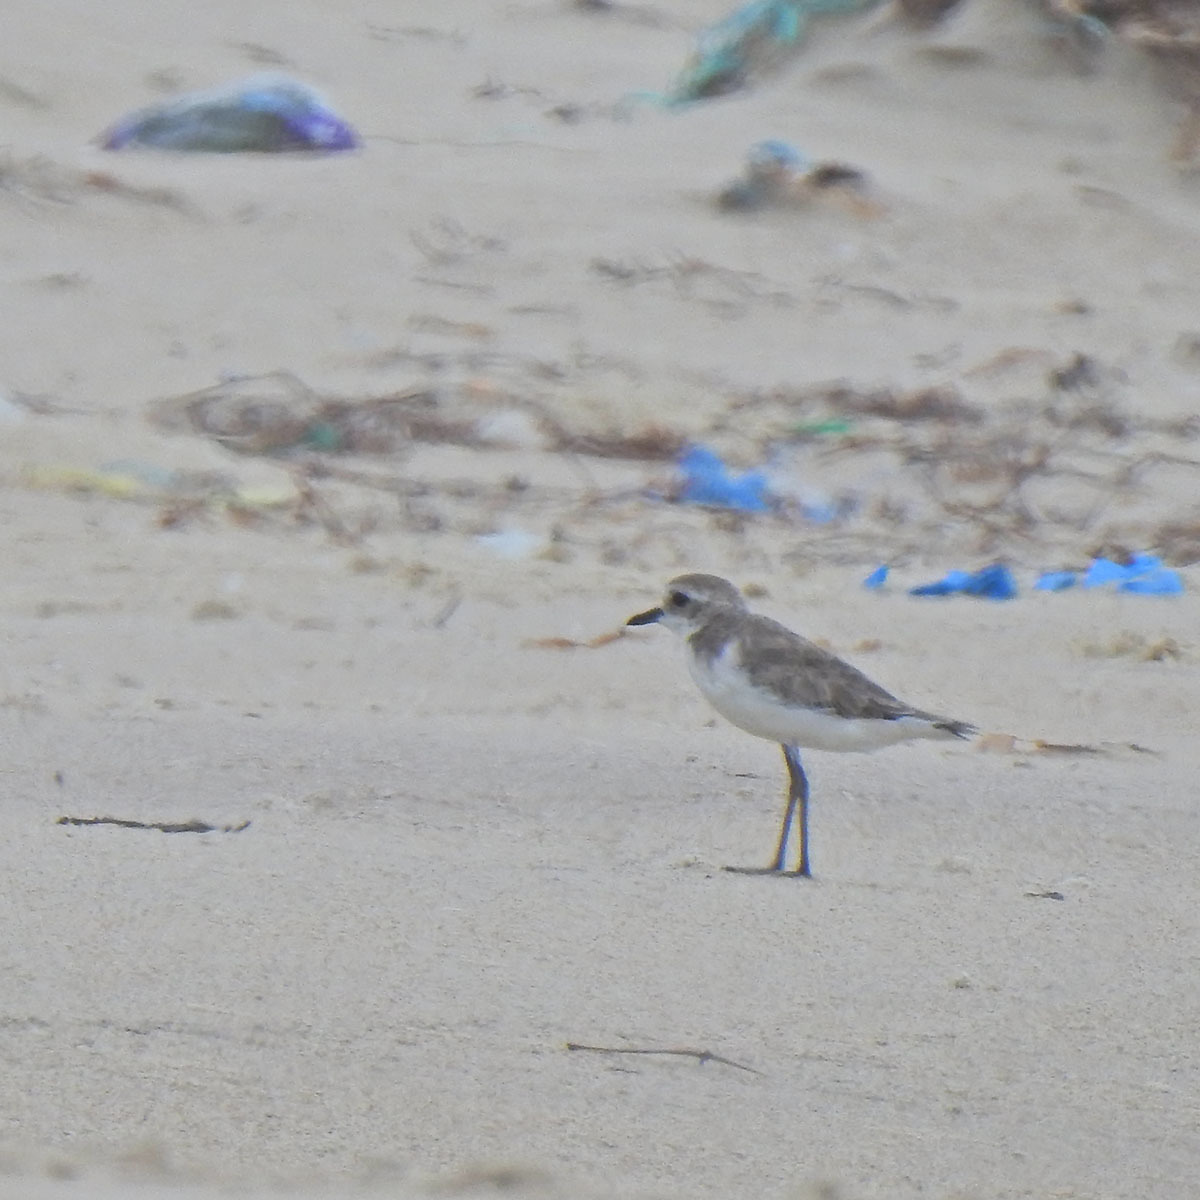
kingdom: Animalia
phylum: Chordata
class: Aves
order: Charadriiformes
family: Charadriidae
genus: Anarhynchus
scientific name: Anarhynchus
